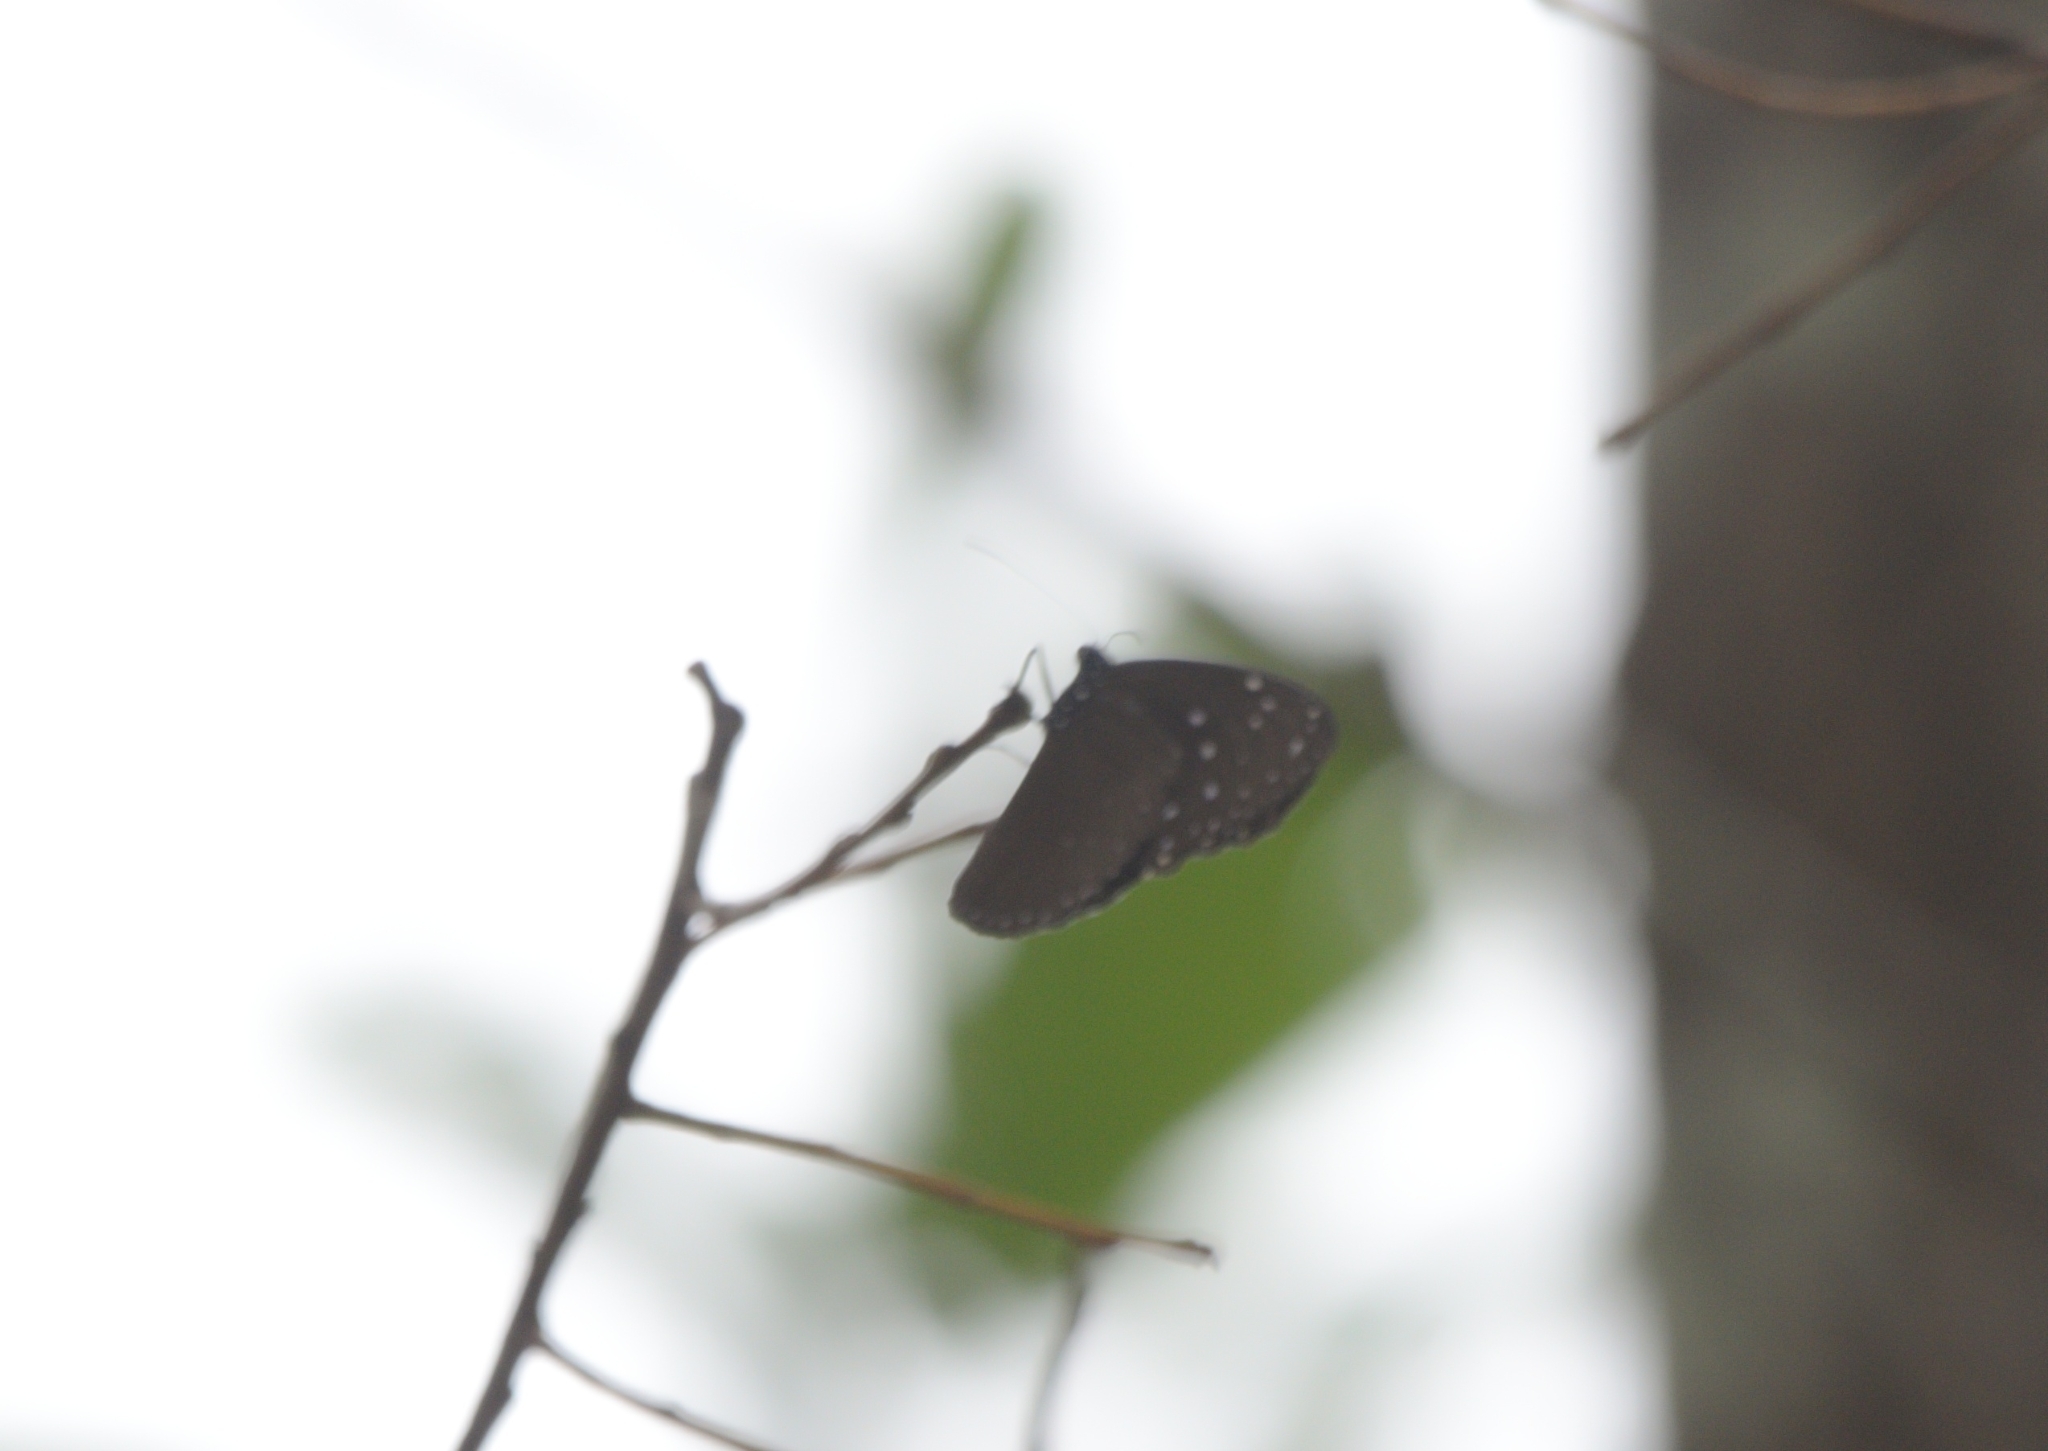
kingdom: Animalia
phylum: Arthropoda
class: Insecta
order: Lepidoptera
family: Nymphalidae
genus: Euploea
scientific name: Euploea mulciber
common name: Striped blue crow butterfly
